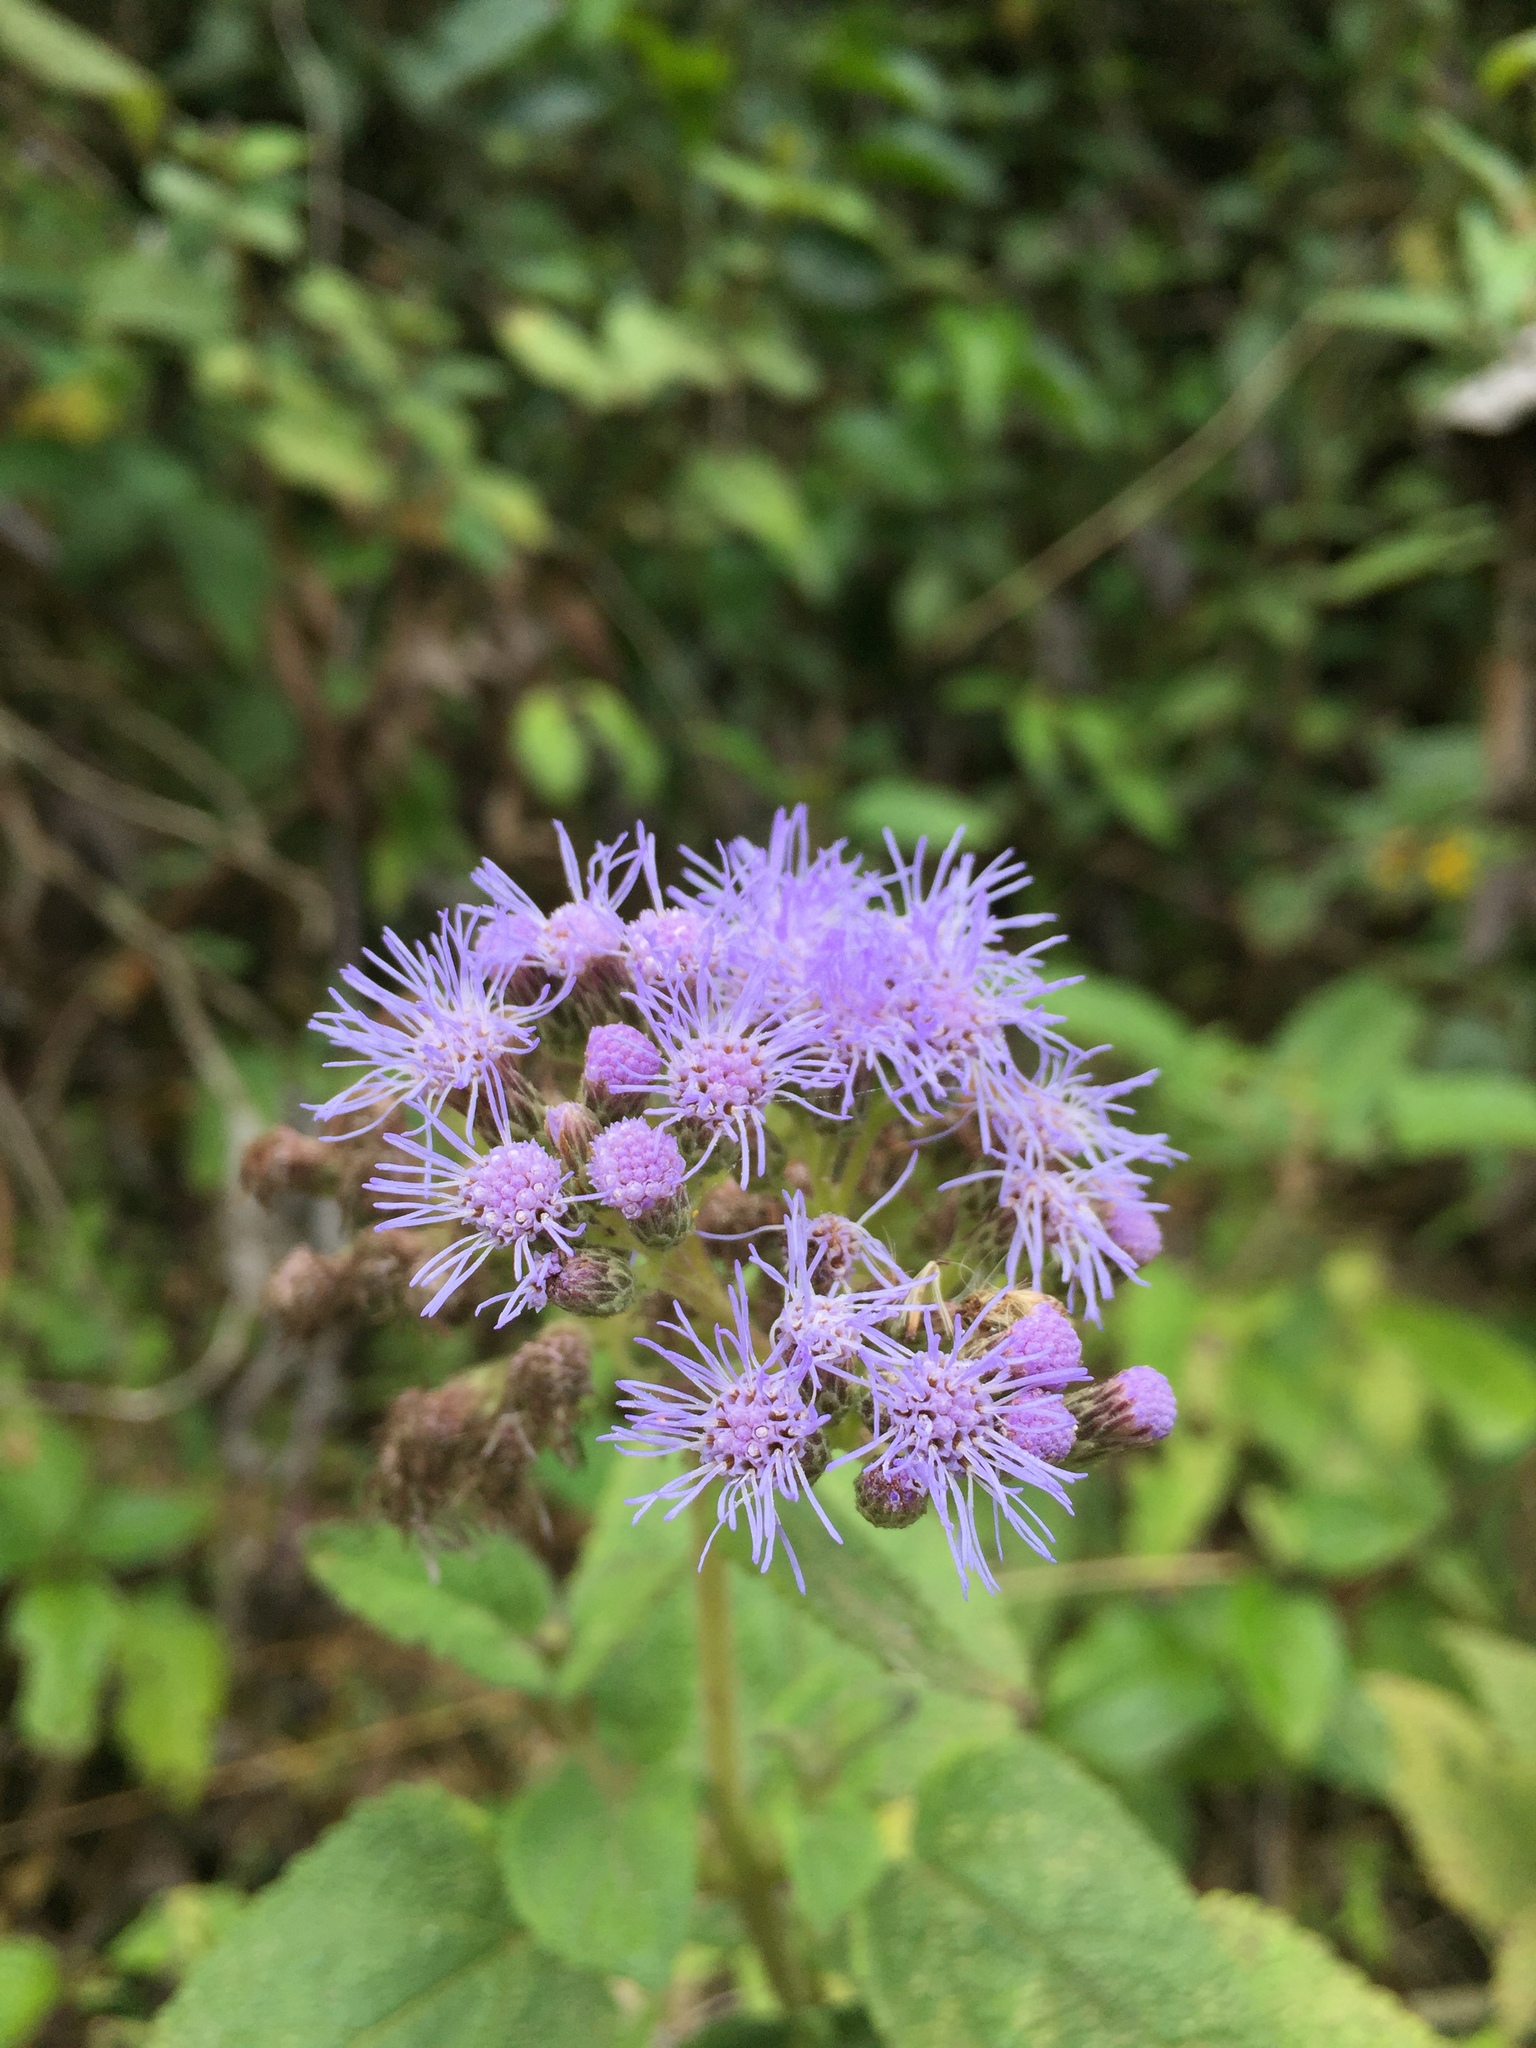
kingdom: Plantae
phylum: Tracheophyta
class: Magnoliopsida
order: Asterales
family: Asteraceae
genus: Aristeguietia
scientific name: Aristeguietia lamiifolia
